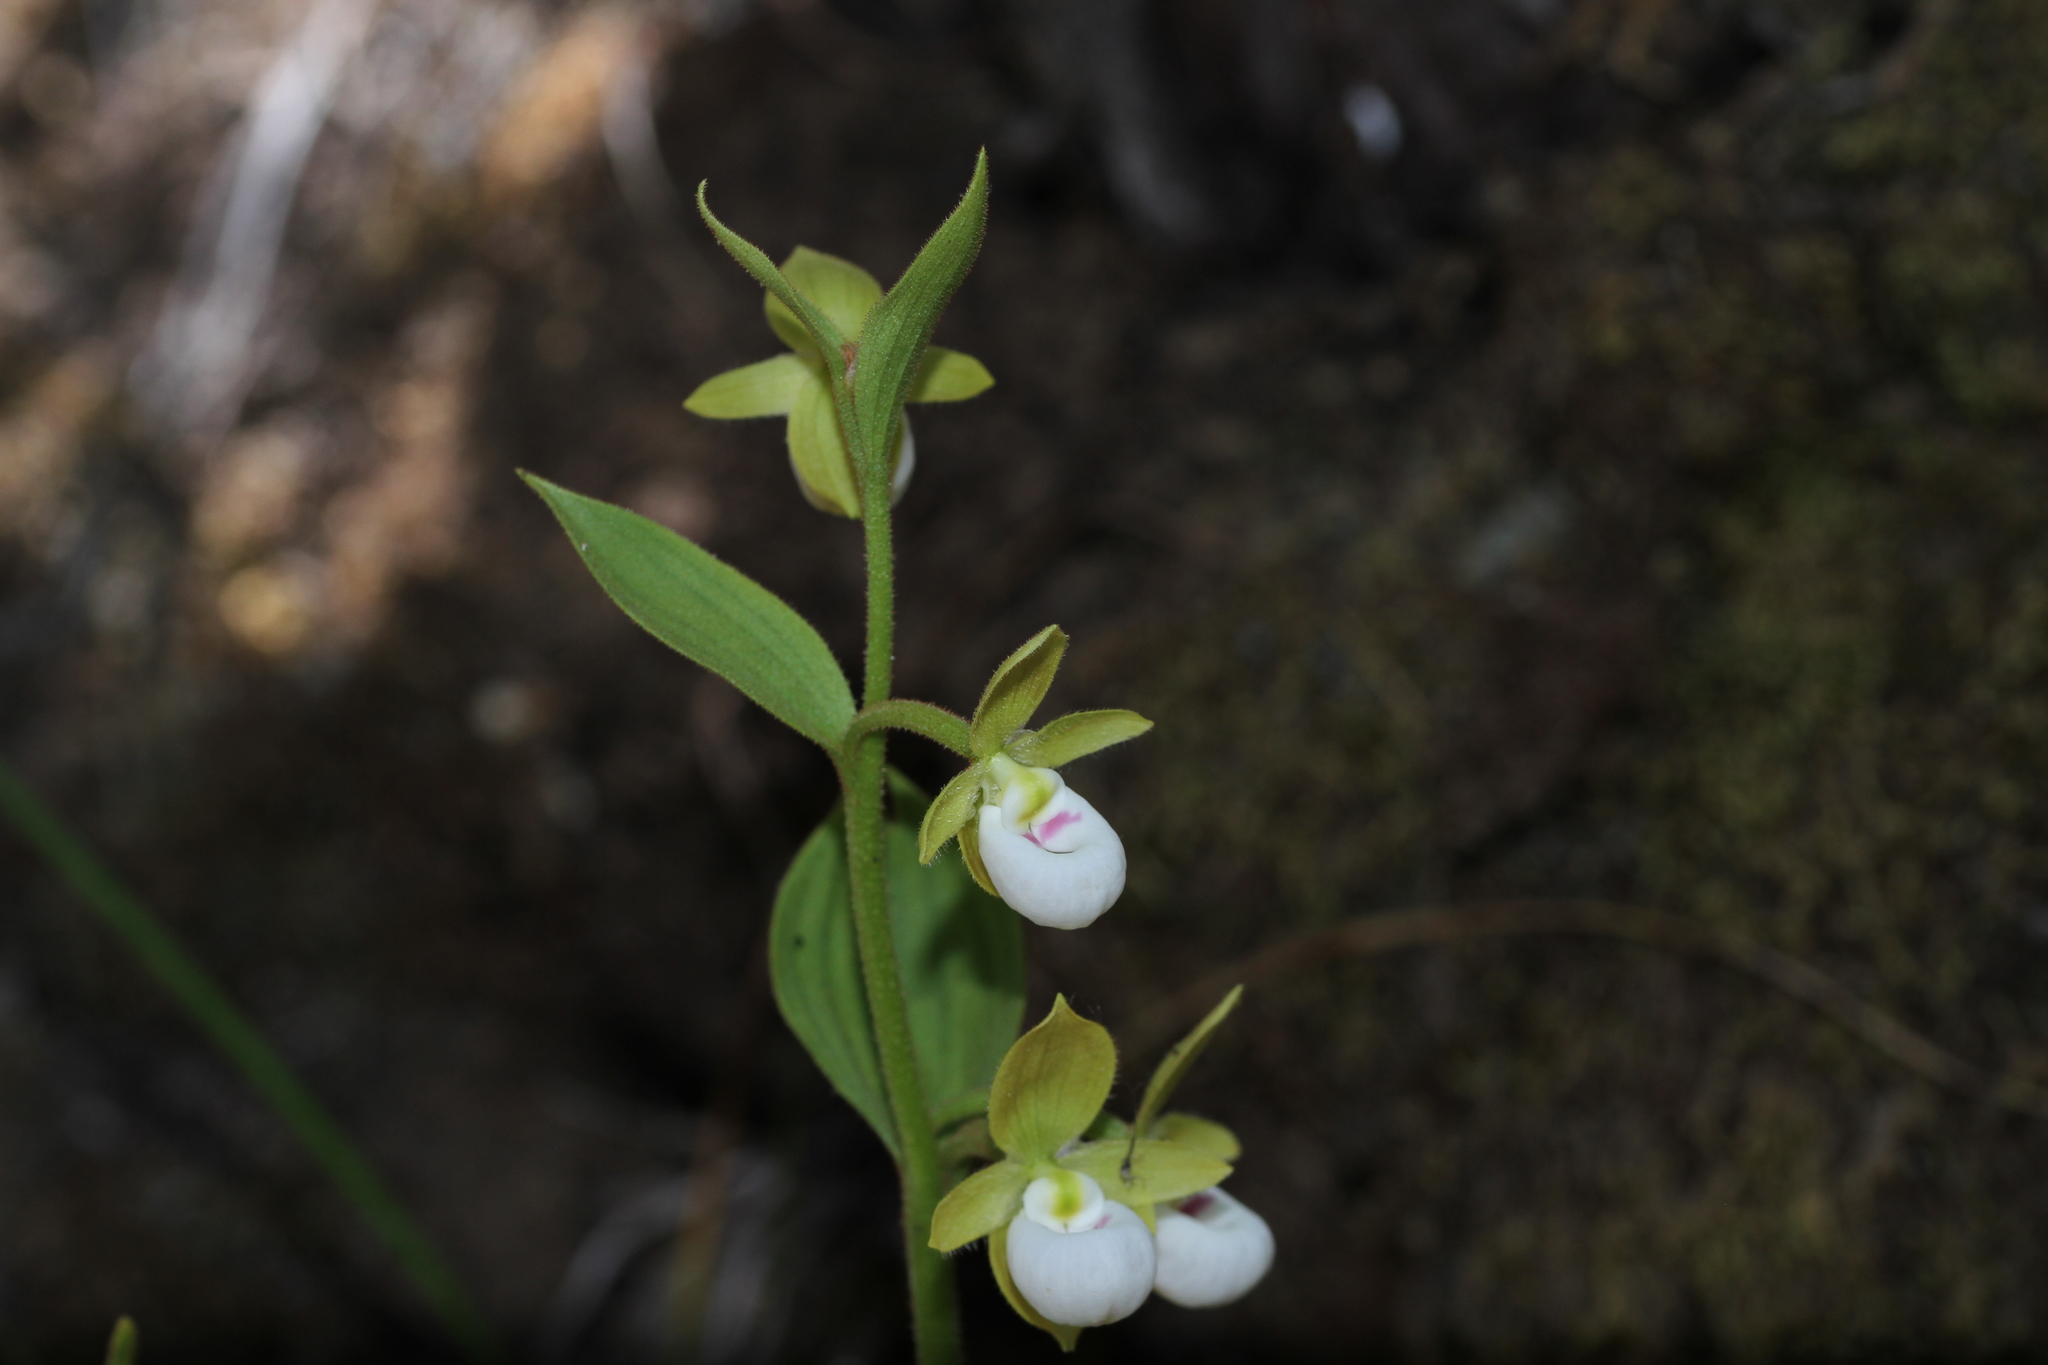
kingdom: Plantae
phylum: Tracheophyta
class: Liliopsida
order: Asparagales
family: Orchidaceae
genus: Cypripedium
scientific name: Cypripedium californicum
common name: California lady's slipper
